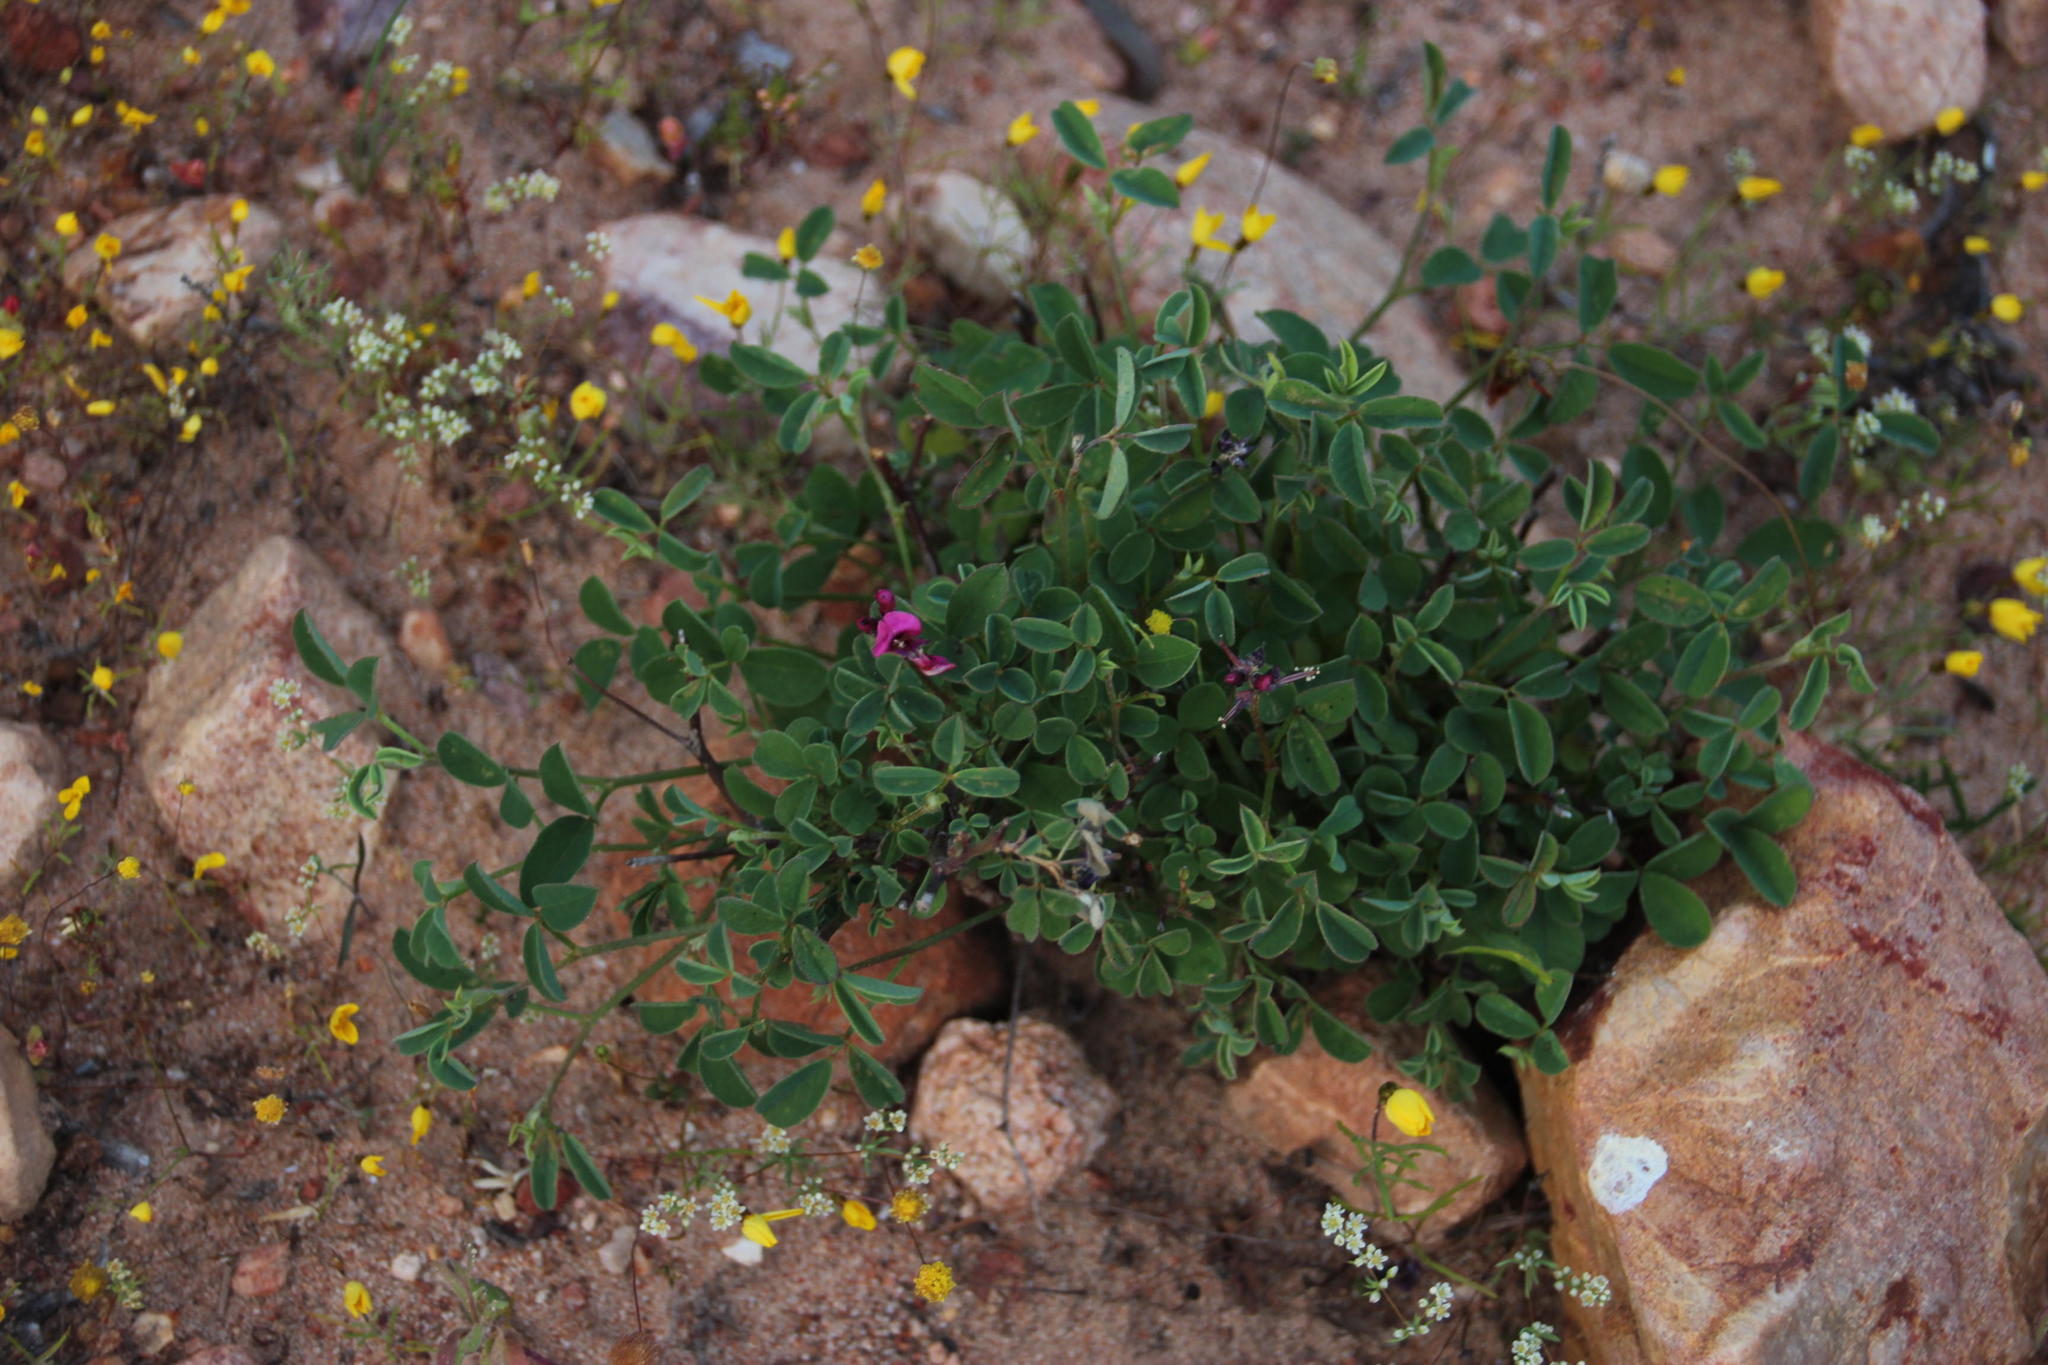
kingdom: Plantae
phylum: Tracheophyta
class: Magnoliopsida
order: Fabales
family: Fabaceae
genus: Indigofera
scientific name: Indigofera amoena
